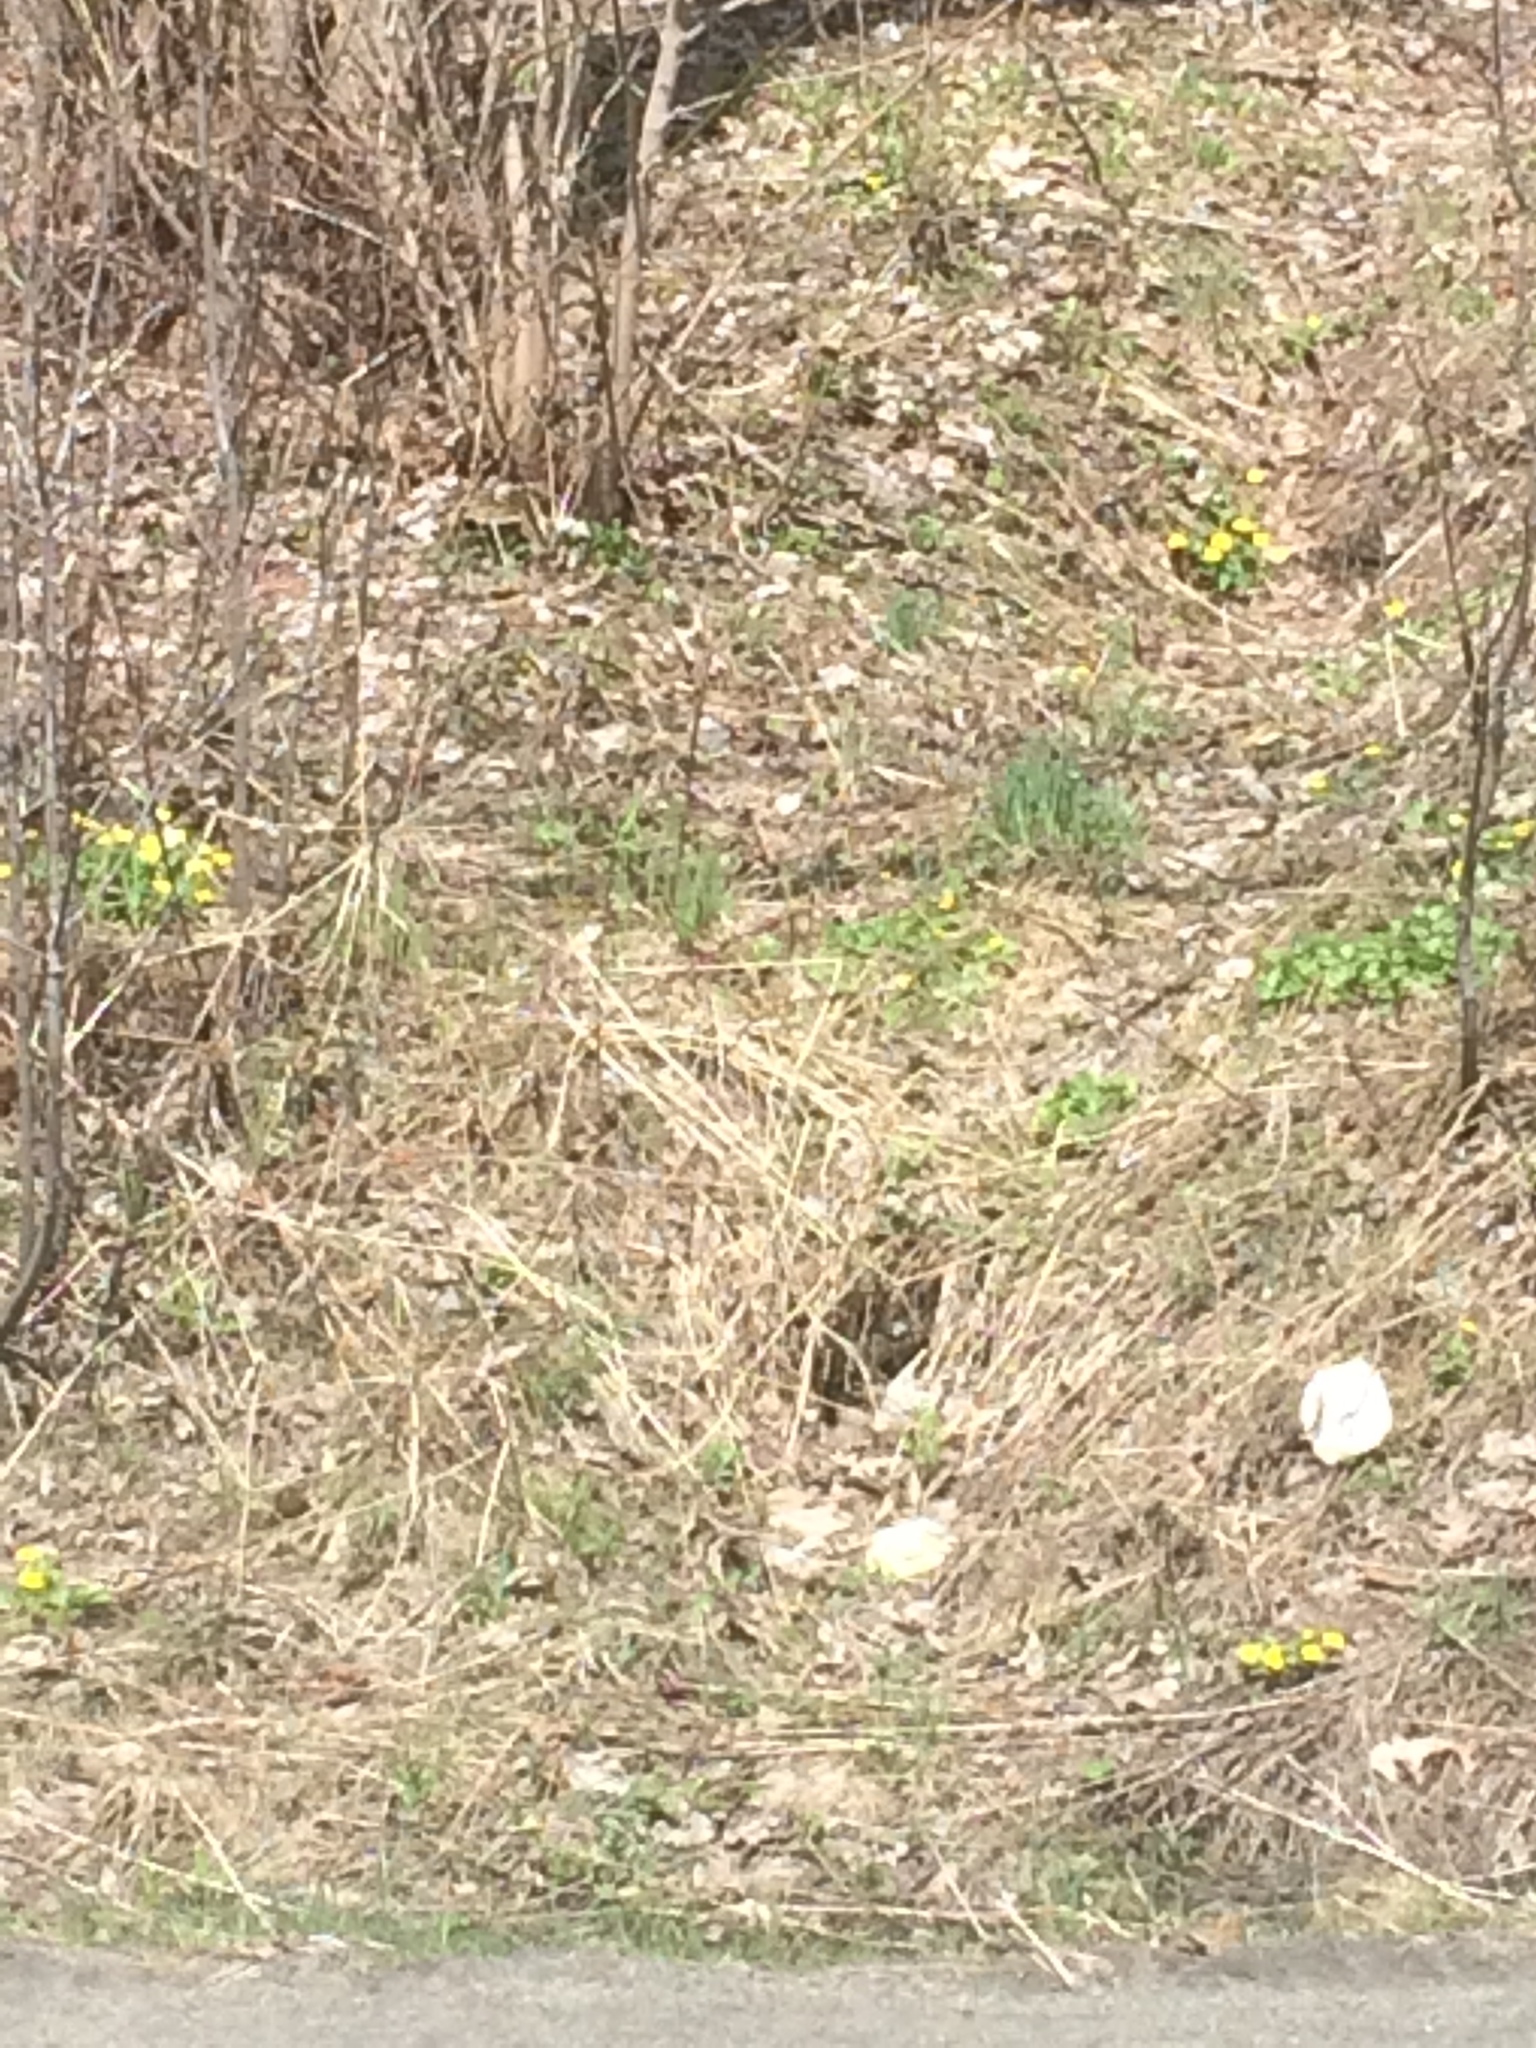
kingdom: Plantae
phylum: Tracheophyta
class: Magnoliopsida
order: Ranunculales
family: Ranunculaceae
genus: Ficaria
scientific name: Ficaria verna
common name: Lesser celandine
